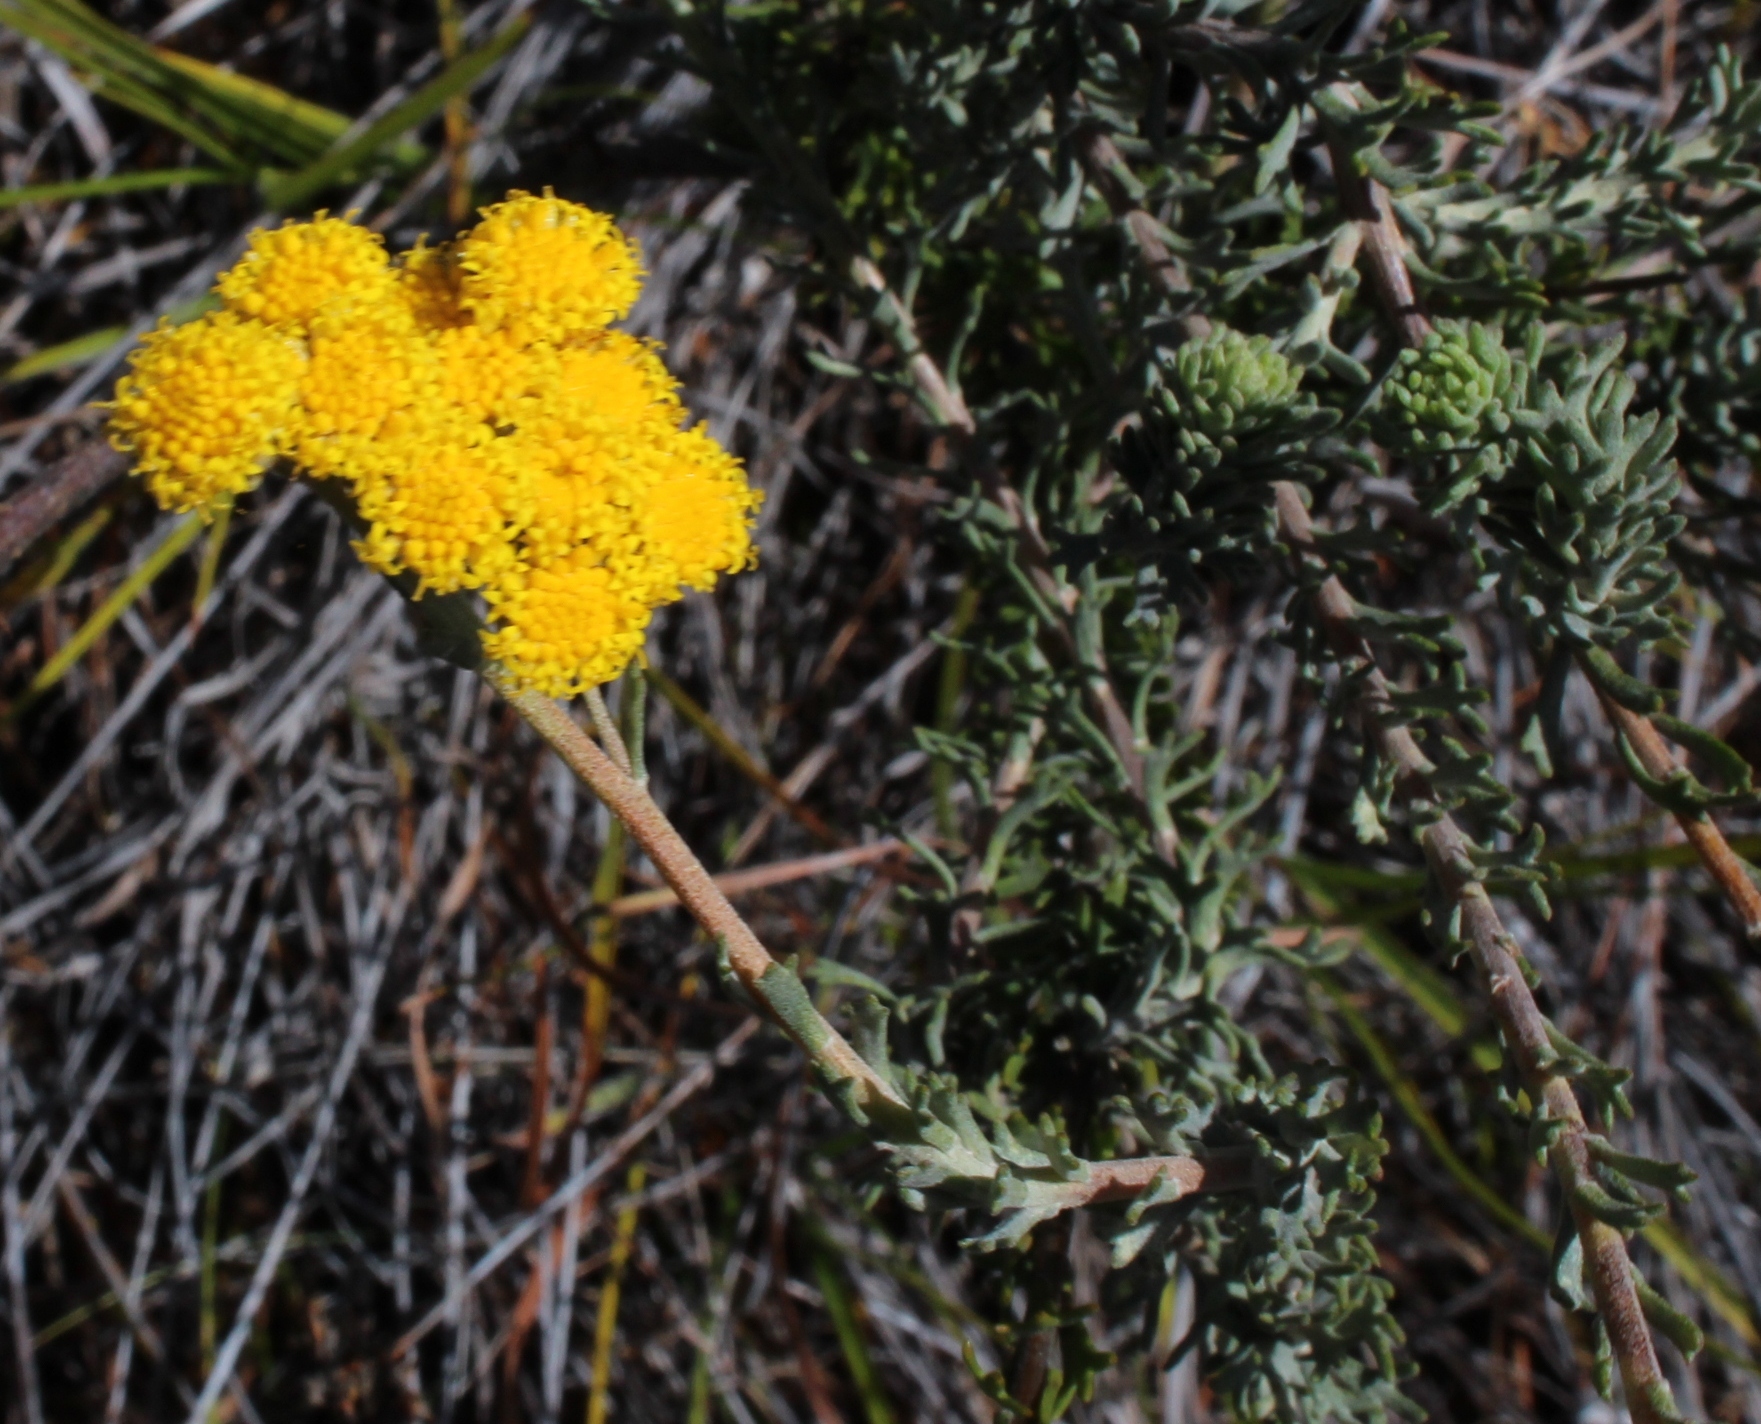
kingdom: Plantae
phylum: Tracheophyta
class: Magnoliopsida
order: Asterales
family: Asteraceae
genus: Athanasia
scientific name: Athanasia trifurcata
